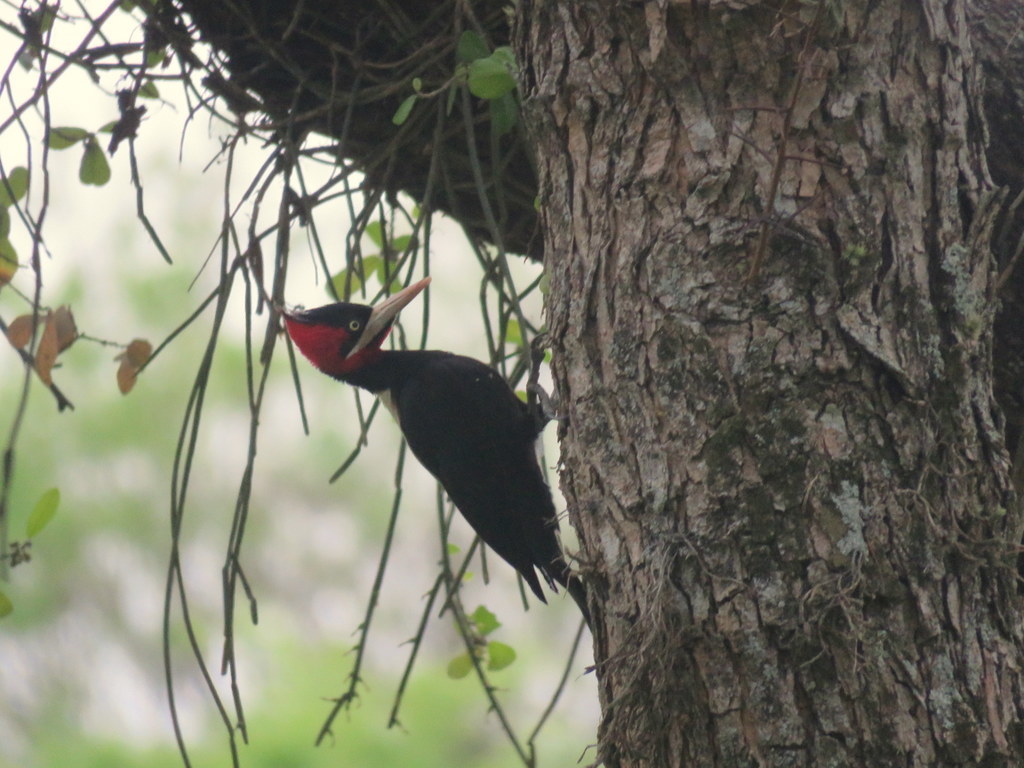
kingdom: Animalia
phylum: Chordata
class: Aves
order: Piciformes
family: Picidae
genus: Campephilus
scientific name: Campephilus leucopogon
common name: Cream-backed woodpecker
